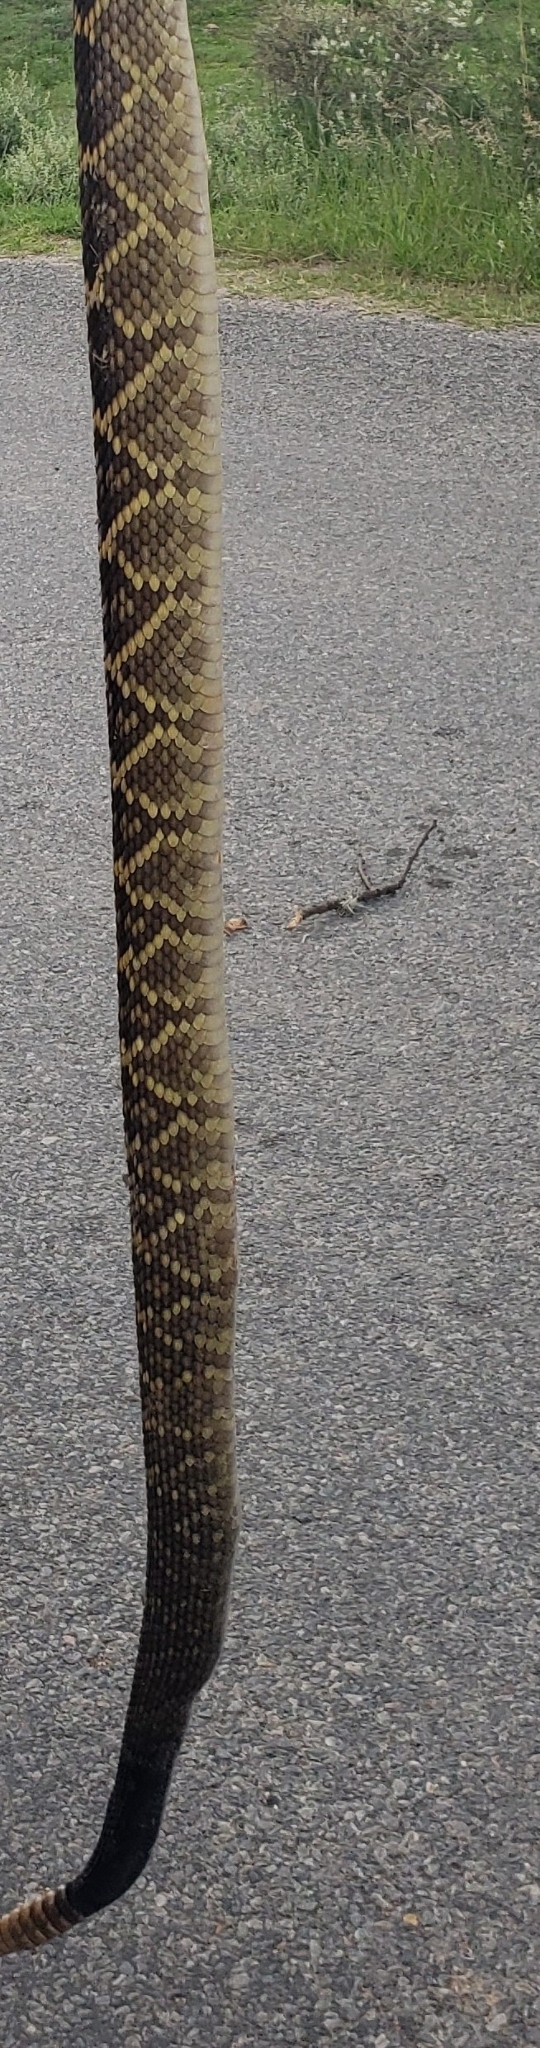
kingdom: Animalia
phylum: Chordata
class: Squamata
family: Viperidae
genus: Crotalus
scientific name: Crotalus molossus
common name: Black tailed rattlesnake
